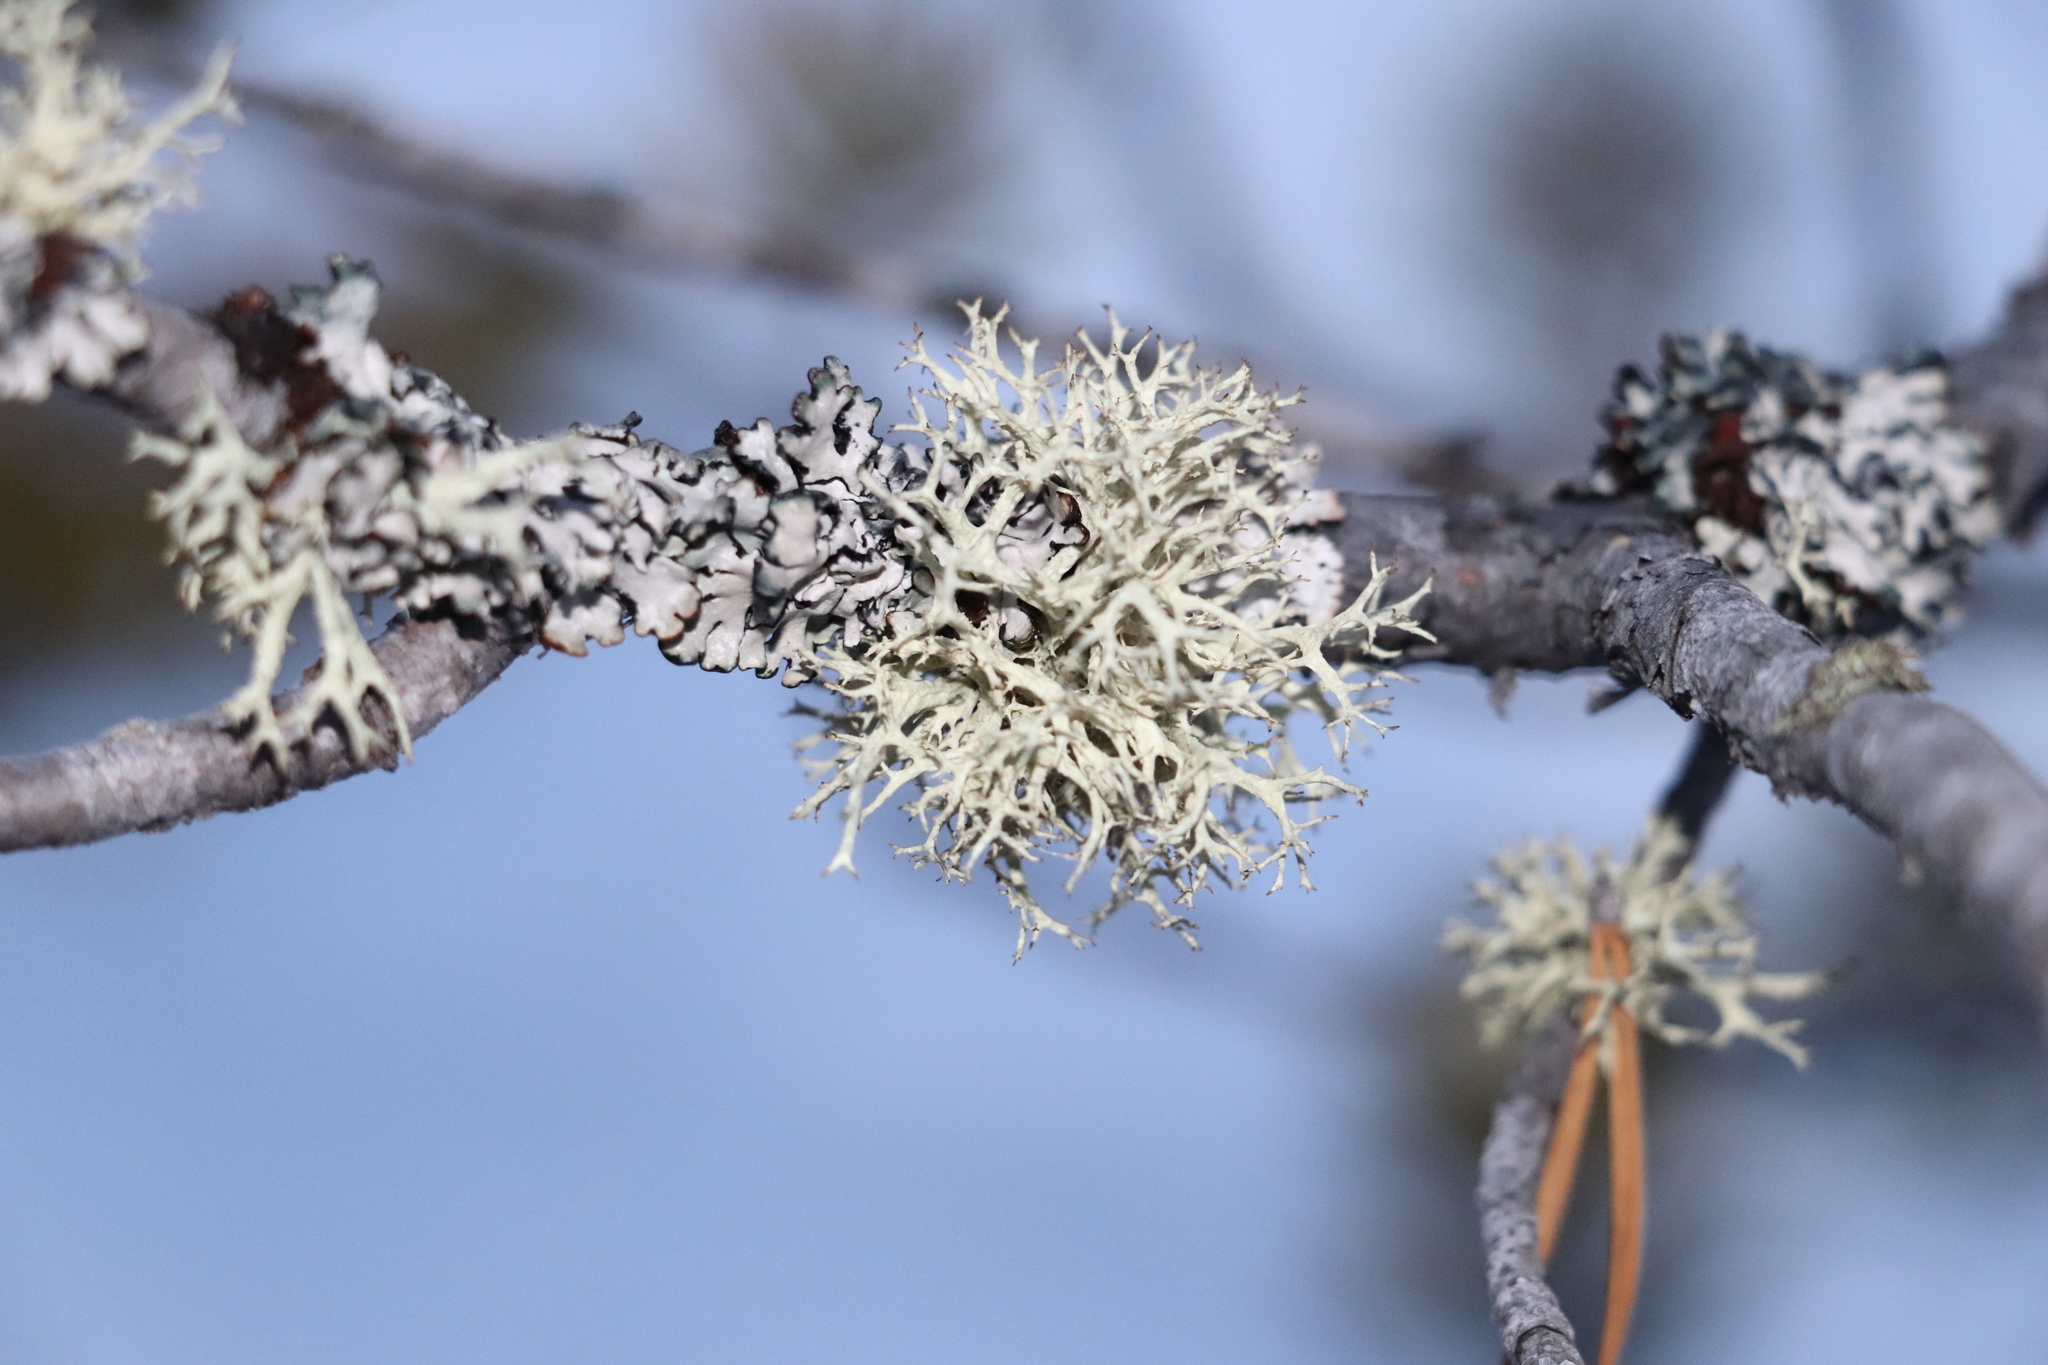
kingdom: Fungi
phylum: Ascomycota
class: Lecanoromycetes
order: Lecanorales
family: Parmeliaceae
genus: Evernia
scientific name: Evernia mesomorpha
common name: Boreal oak moss lichen
